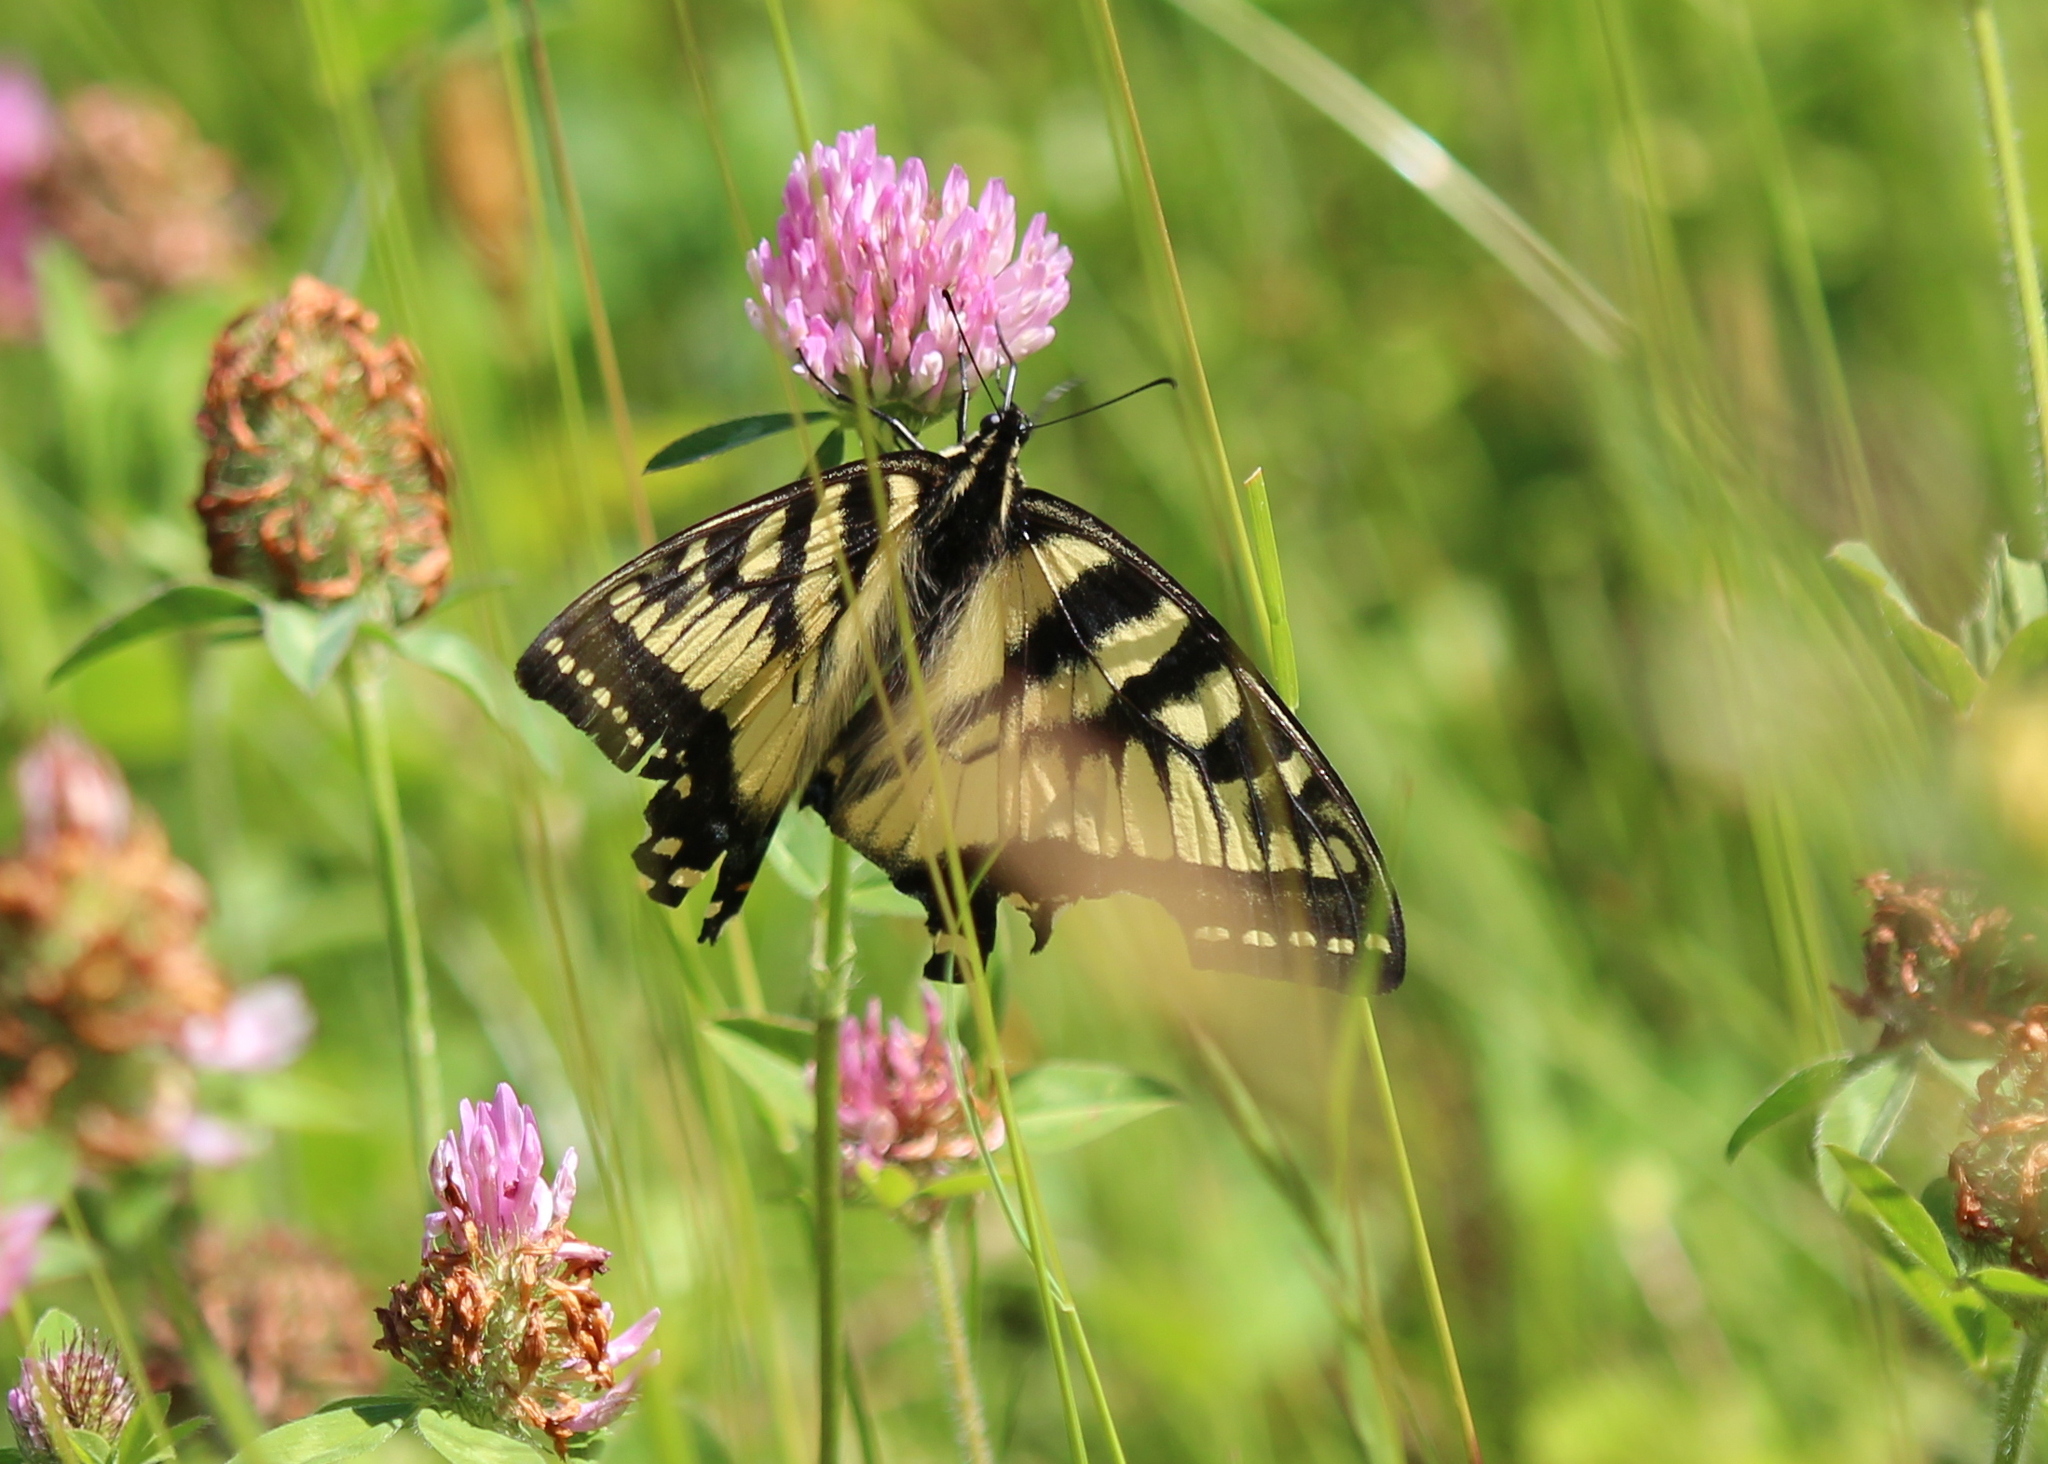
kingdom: Animalia
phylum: Arthropoda
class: Insecta
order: Lepidoptera
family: Papilionidae
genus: Papilio
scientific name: Papilio canadensis
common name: Canadian tiger swallowtail
